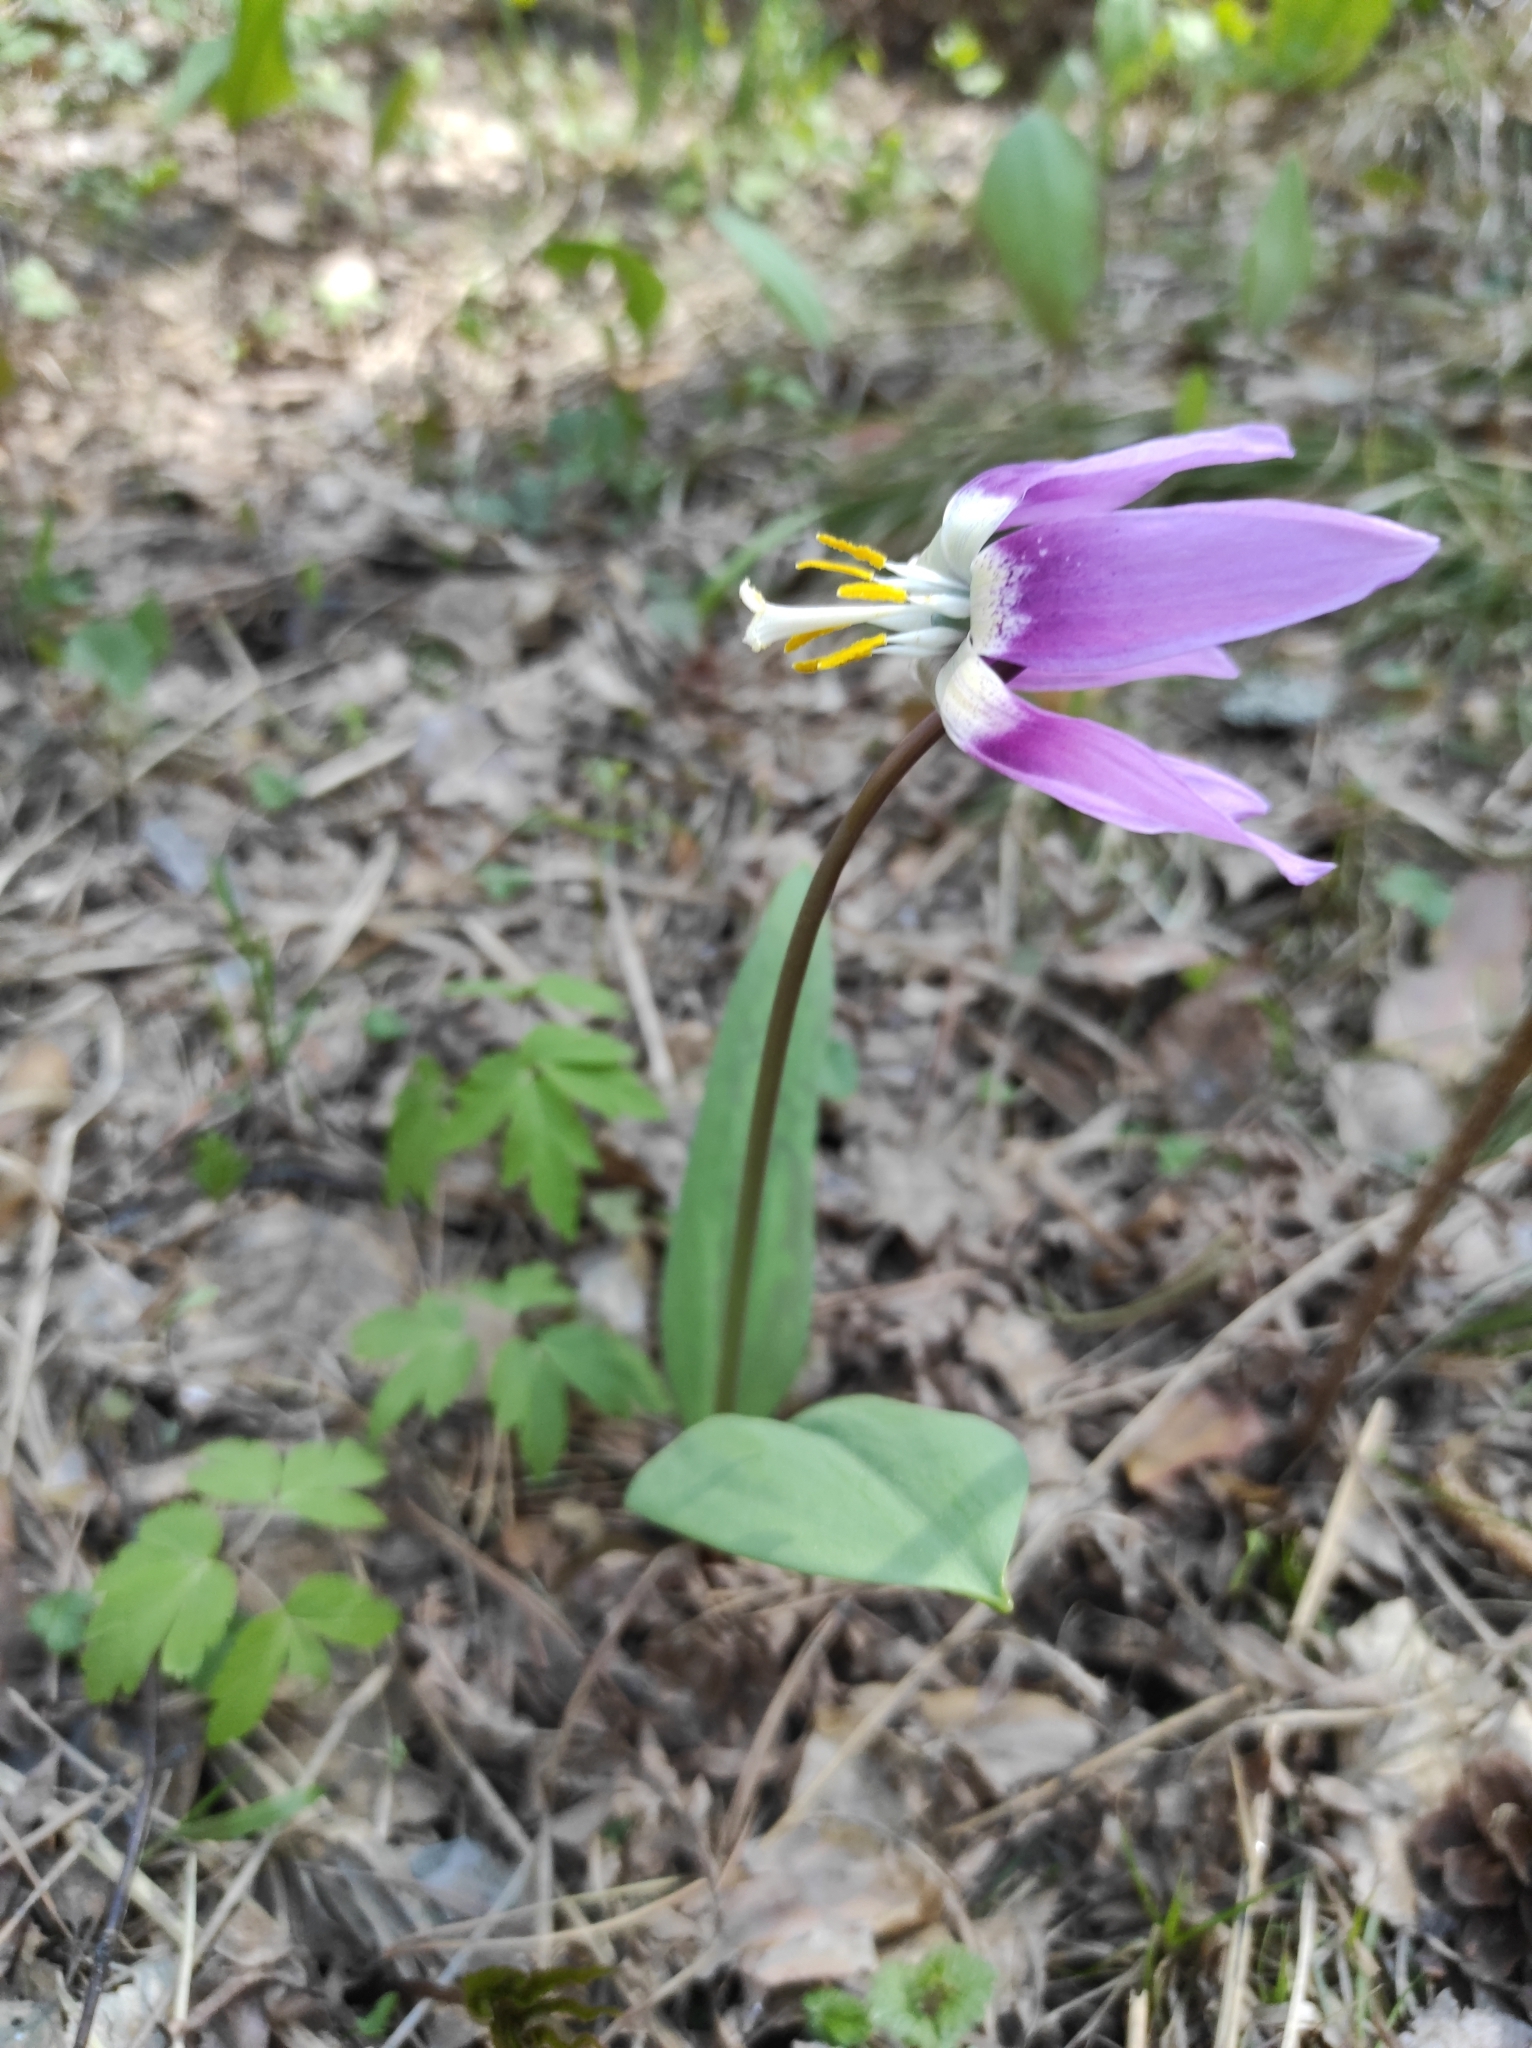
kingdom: Plantae
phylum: Tracheophyta
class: Liliopsida
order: Liliales
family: Liliaceae
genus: Erythronium
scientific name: Erythronium sibiricum
